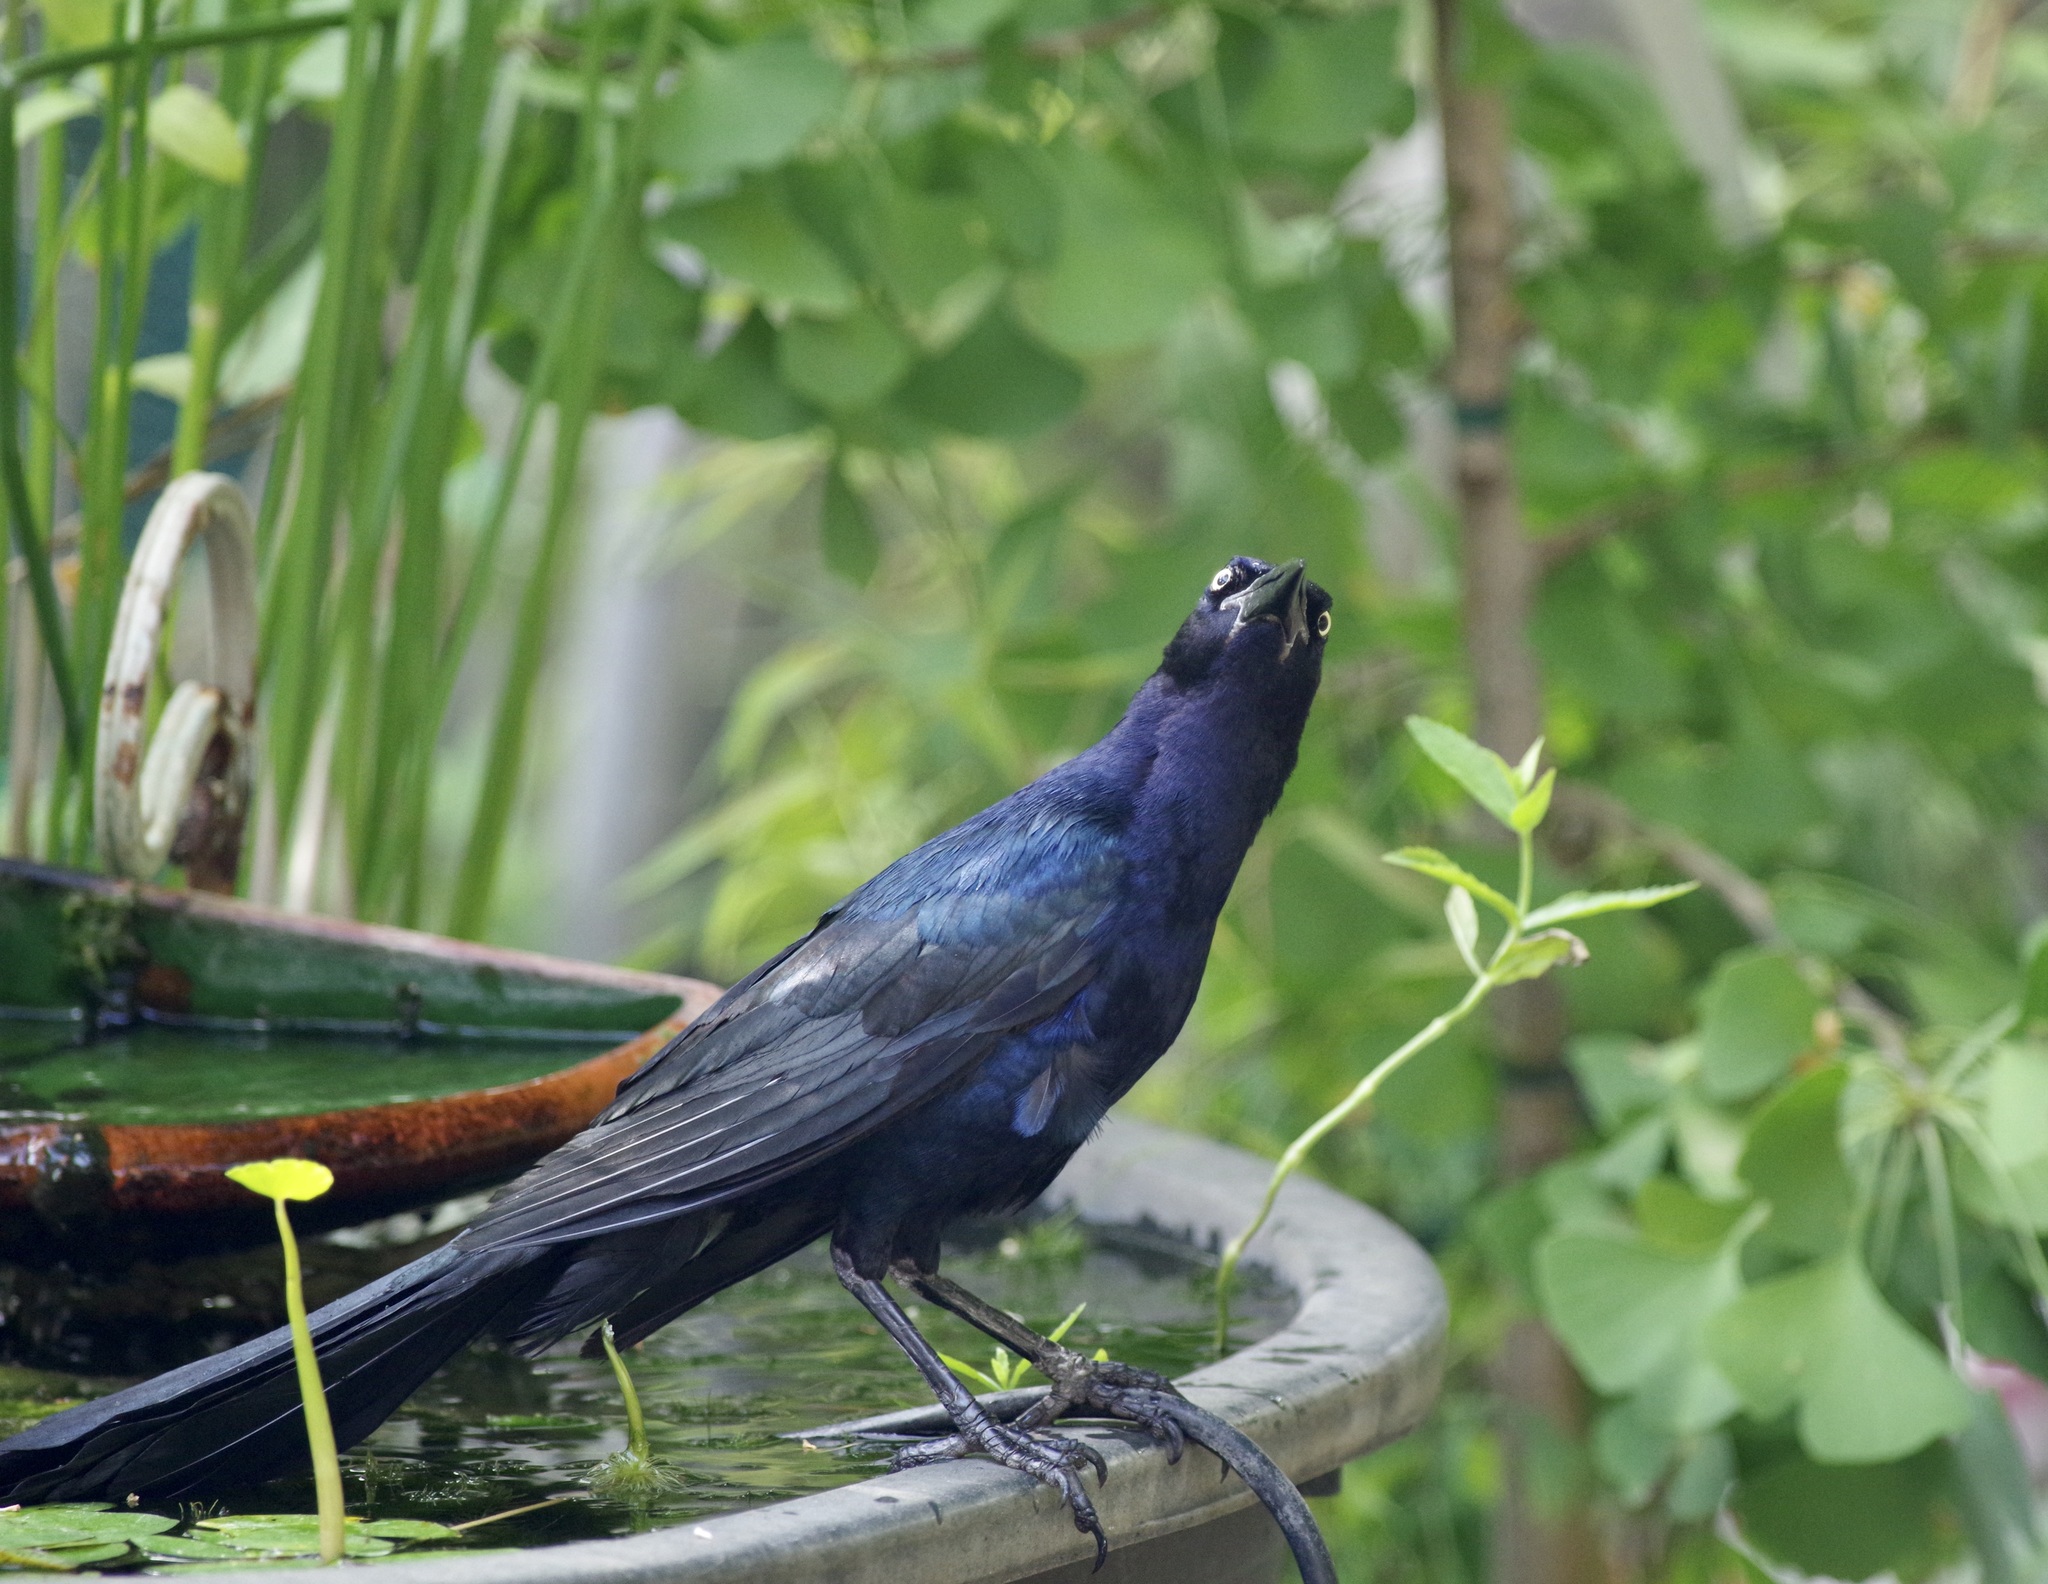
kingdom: Animalia
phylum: Chordata
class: Aves
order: Passeriformes
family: Icteridae
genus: Quiscalus
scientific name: Quiscalus mexicanus
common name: Great-tailed grackle
